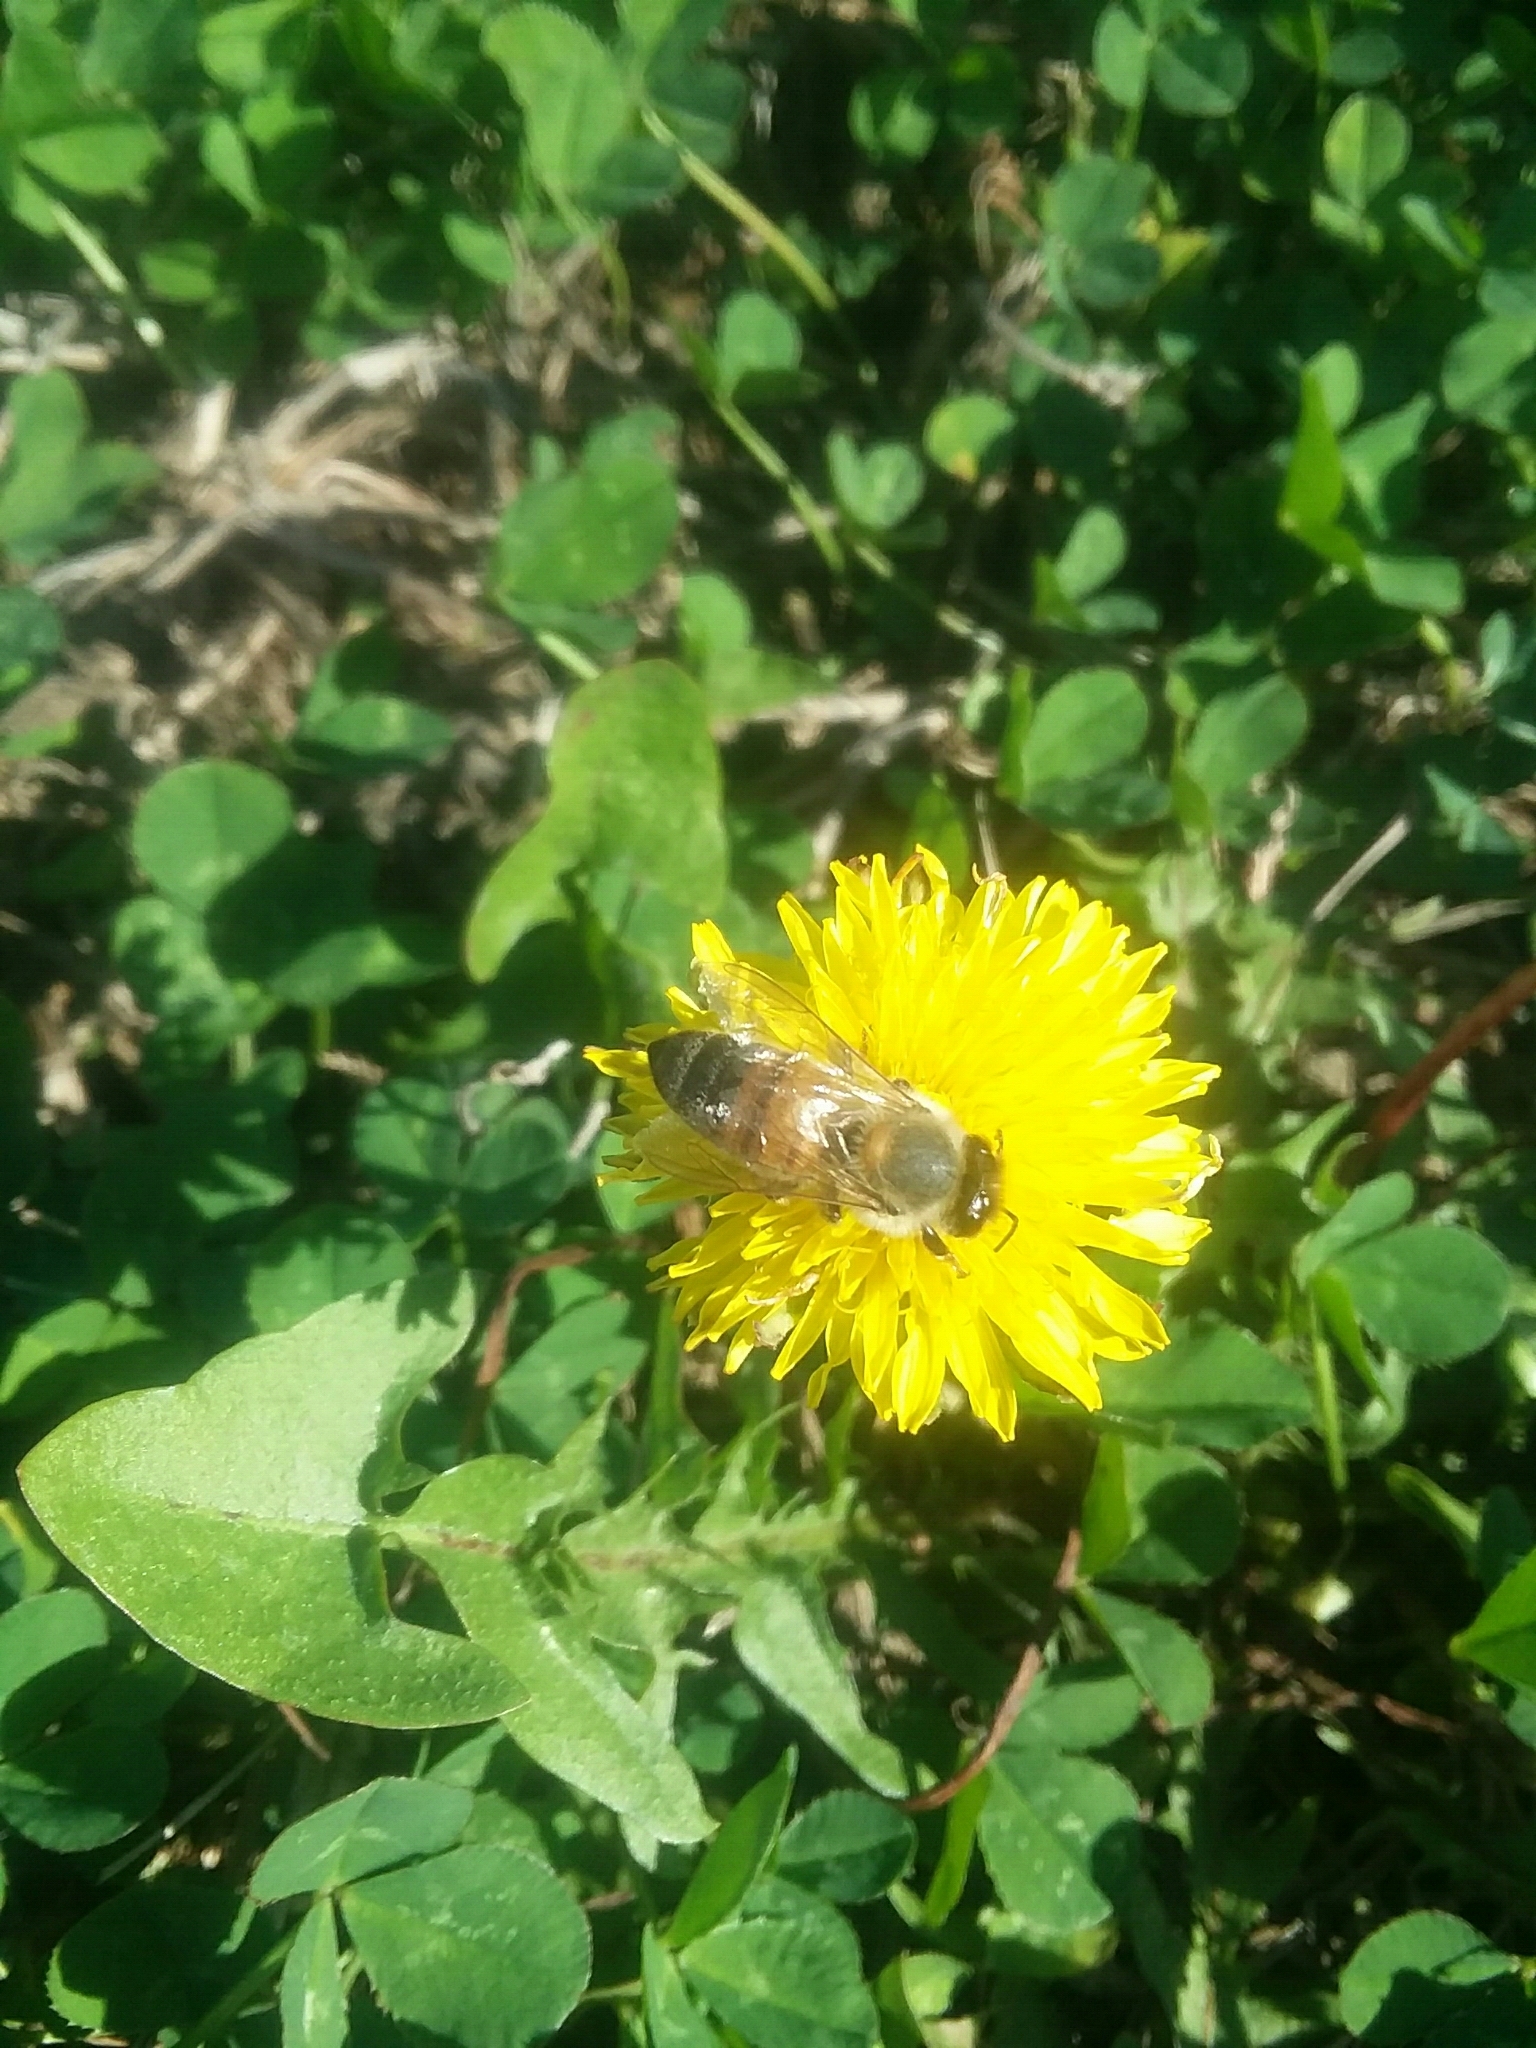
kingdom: Plantae
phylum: Tracheophyta
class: Magnoliopsida
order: Asterales
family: Asteraceae
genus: Taraxacum
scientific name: Taraxacum officinale
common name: Common dandelion
